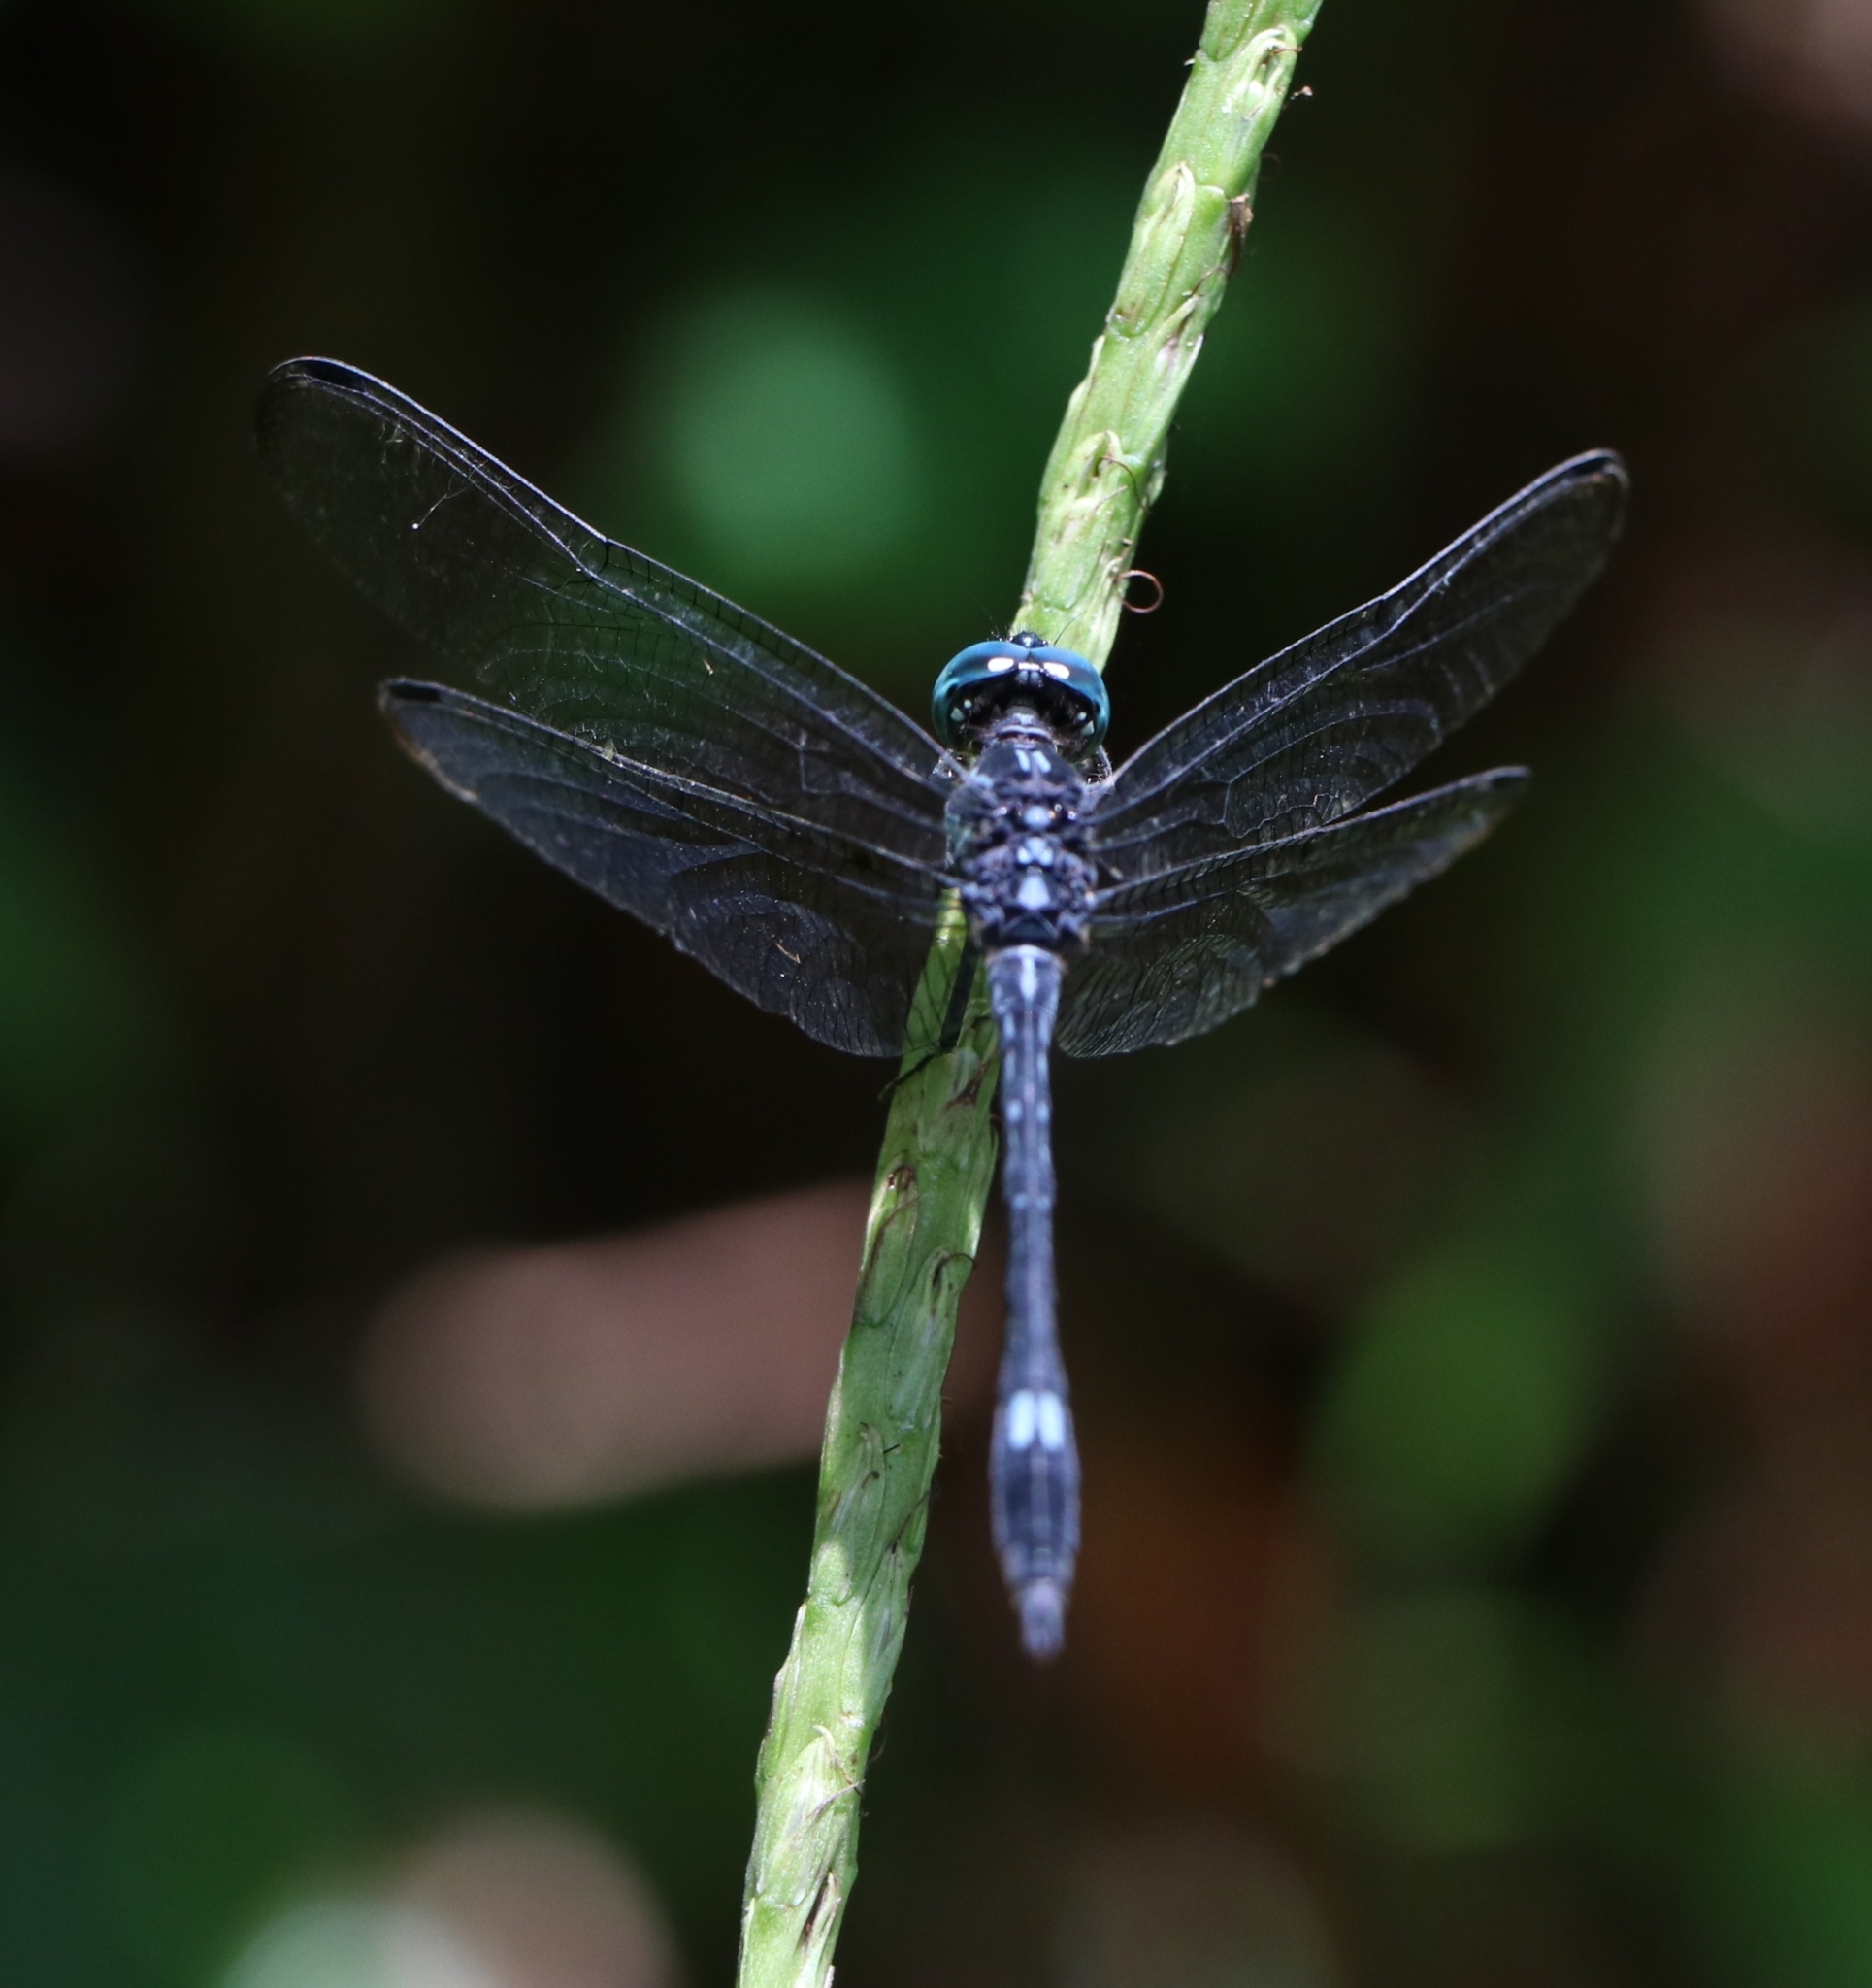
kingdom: Animalia
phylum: Arthropoda
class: Insecta
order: Odonata
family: Libellulidae
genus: Hylaeothemis
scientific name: Hylaeothemis apicalis
